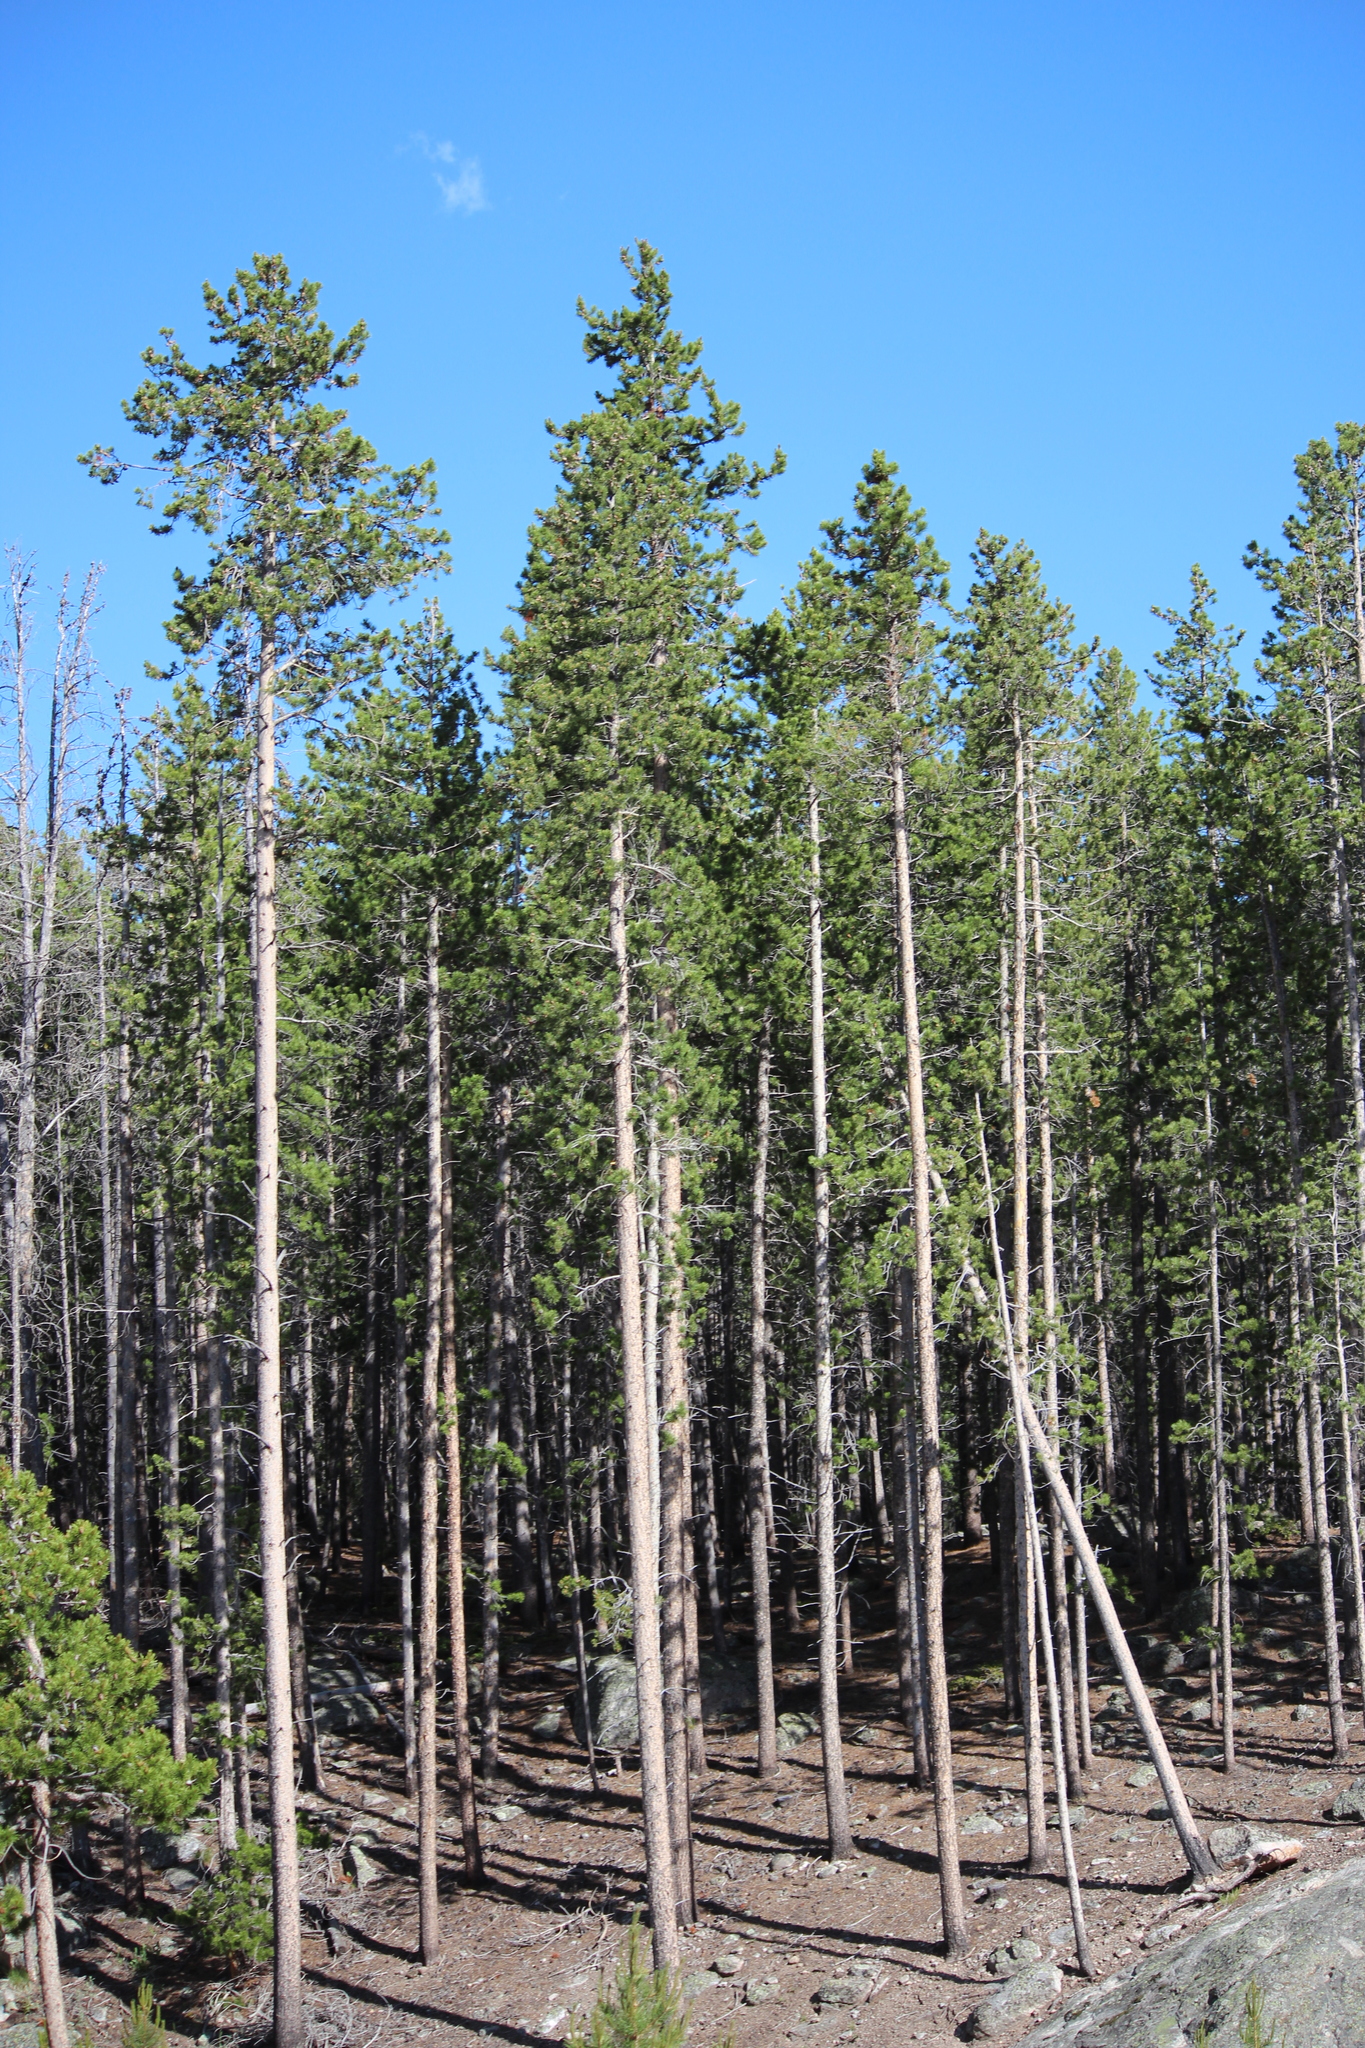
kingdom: Plantae
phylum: Tracheophyta
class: Pinopsida
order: Pinales
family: Pinaceae
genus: Pinus
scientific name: Pinus contorta
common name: Lodgepole pine
